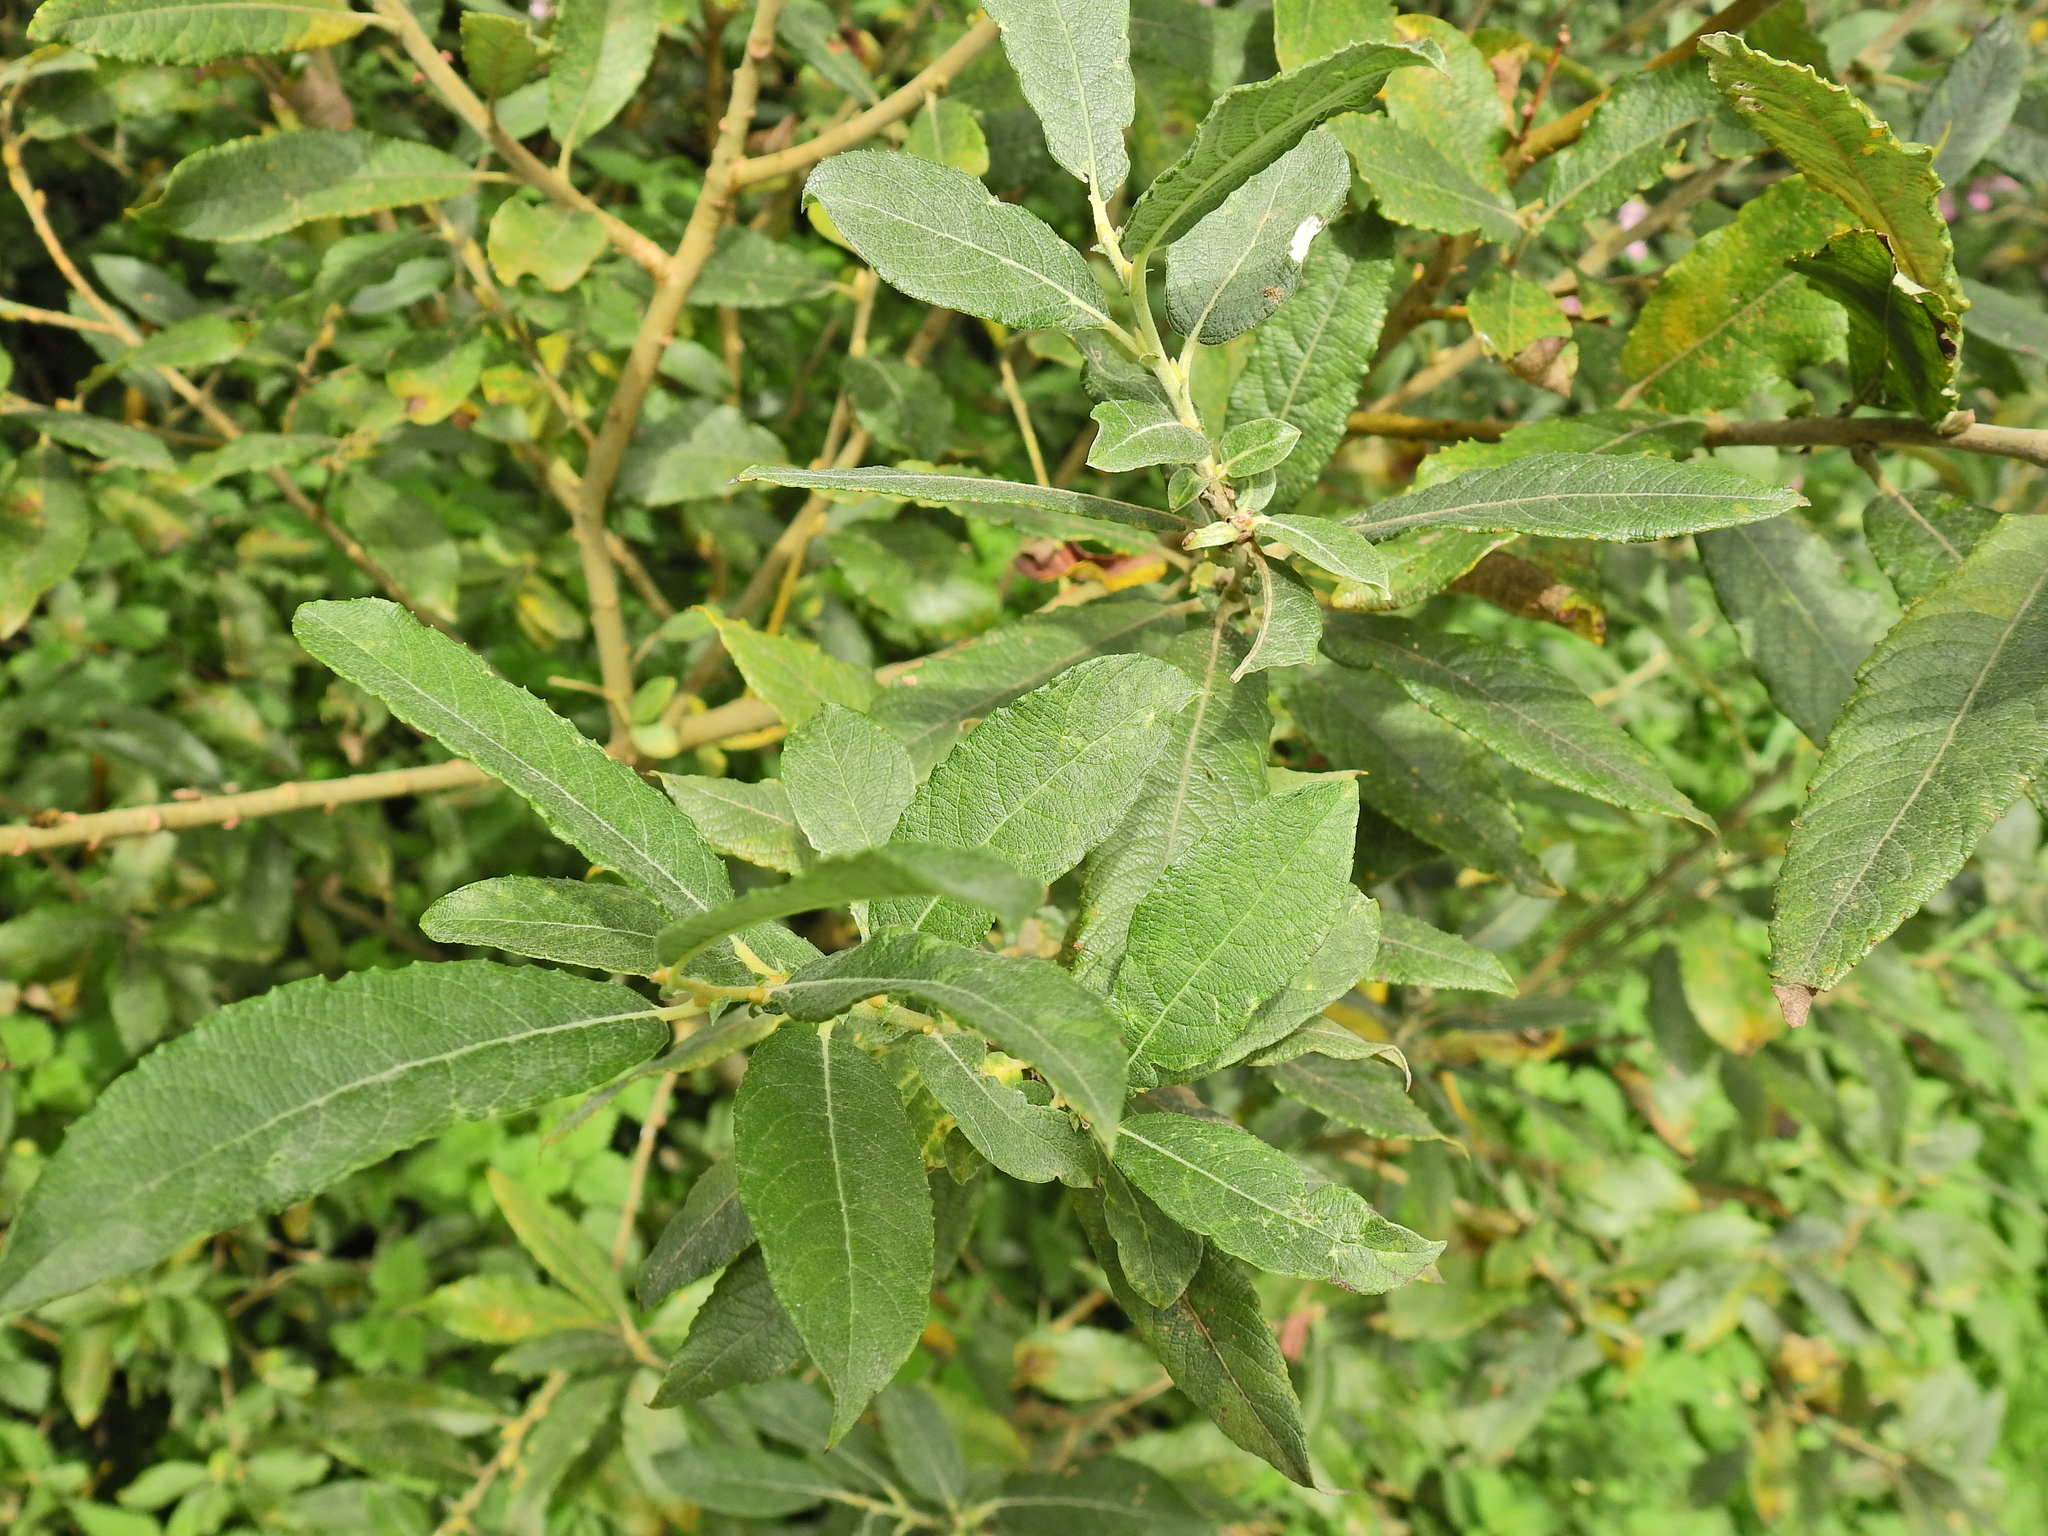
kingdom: Plantae
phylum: Tracheophyta
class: Magnoliopsida
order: Malpighiales
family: Salicaceae
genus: Salix
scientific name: Salix cinerea
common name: Common sallow
